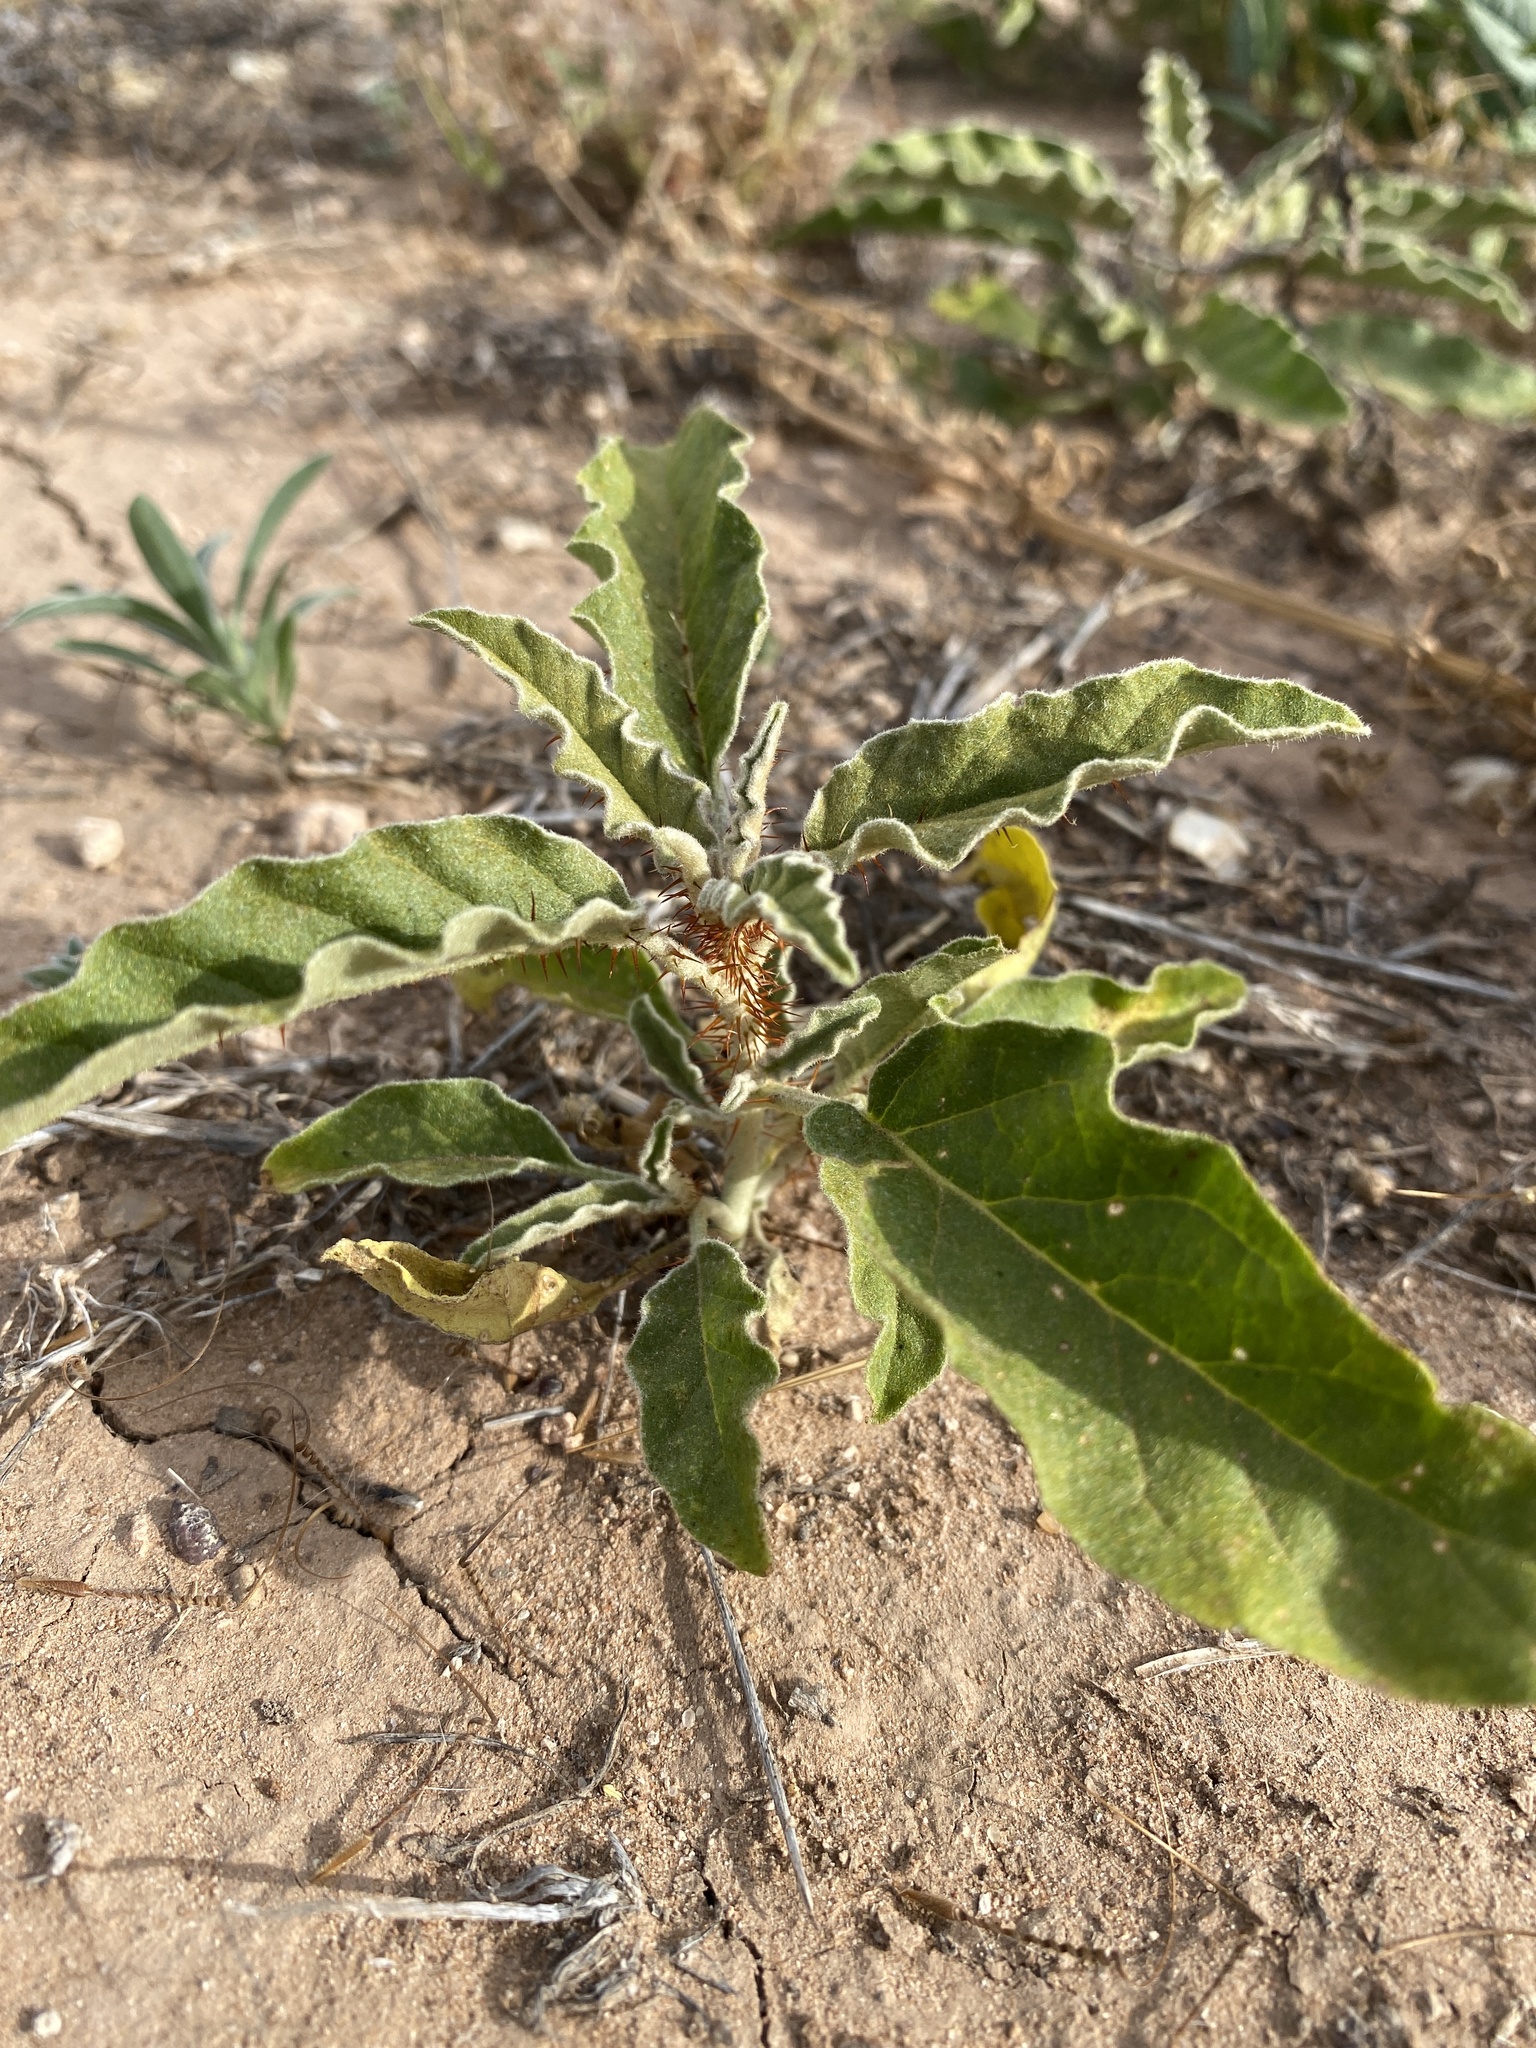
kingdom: Plantae
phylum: Tracheophyta
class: Magnoliopsida
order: Solanales
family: Solanaceae
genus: Solanum
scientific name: Solanum elaeagnifolium
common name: Silverleaf nightshade
